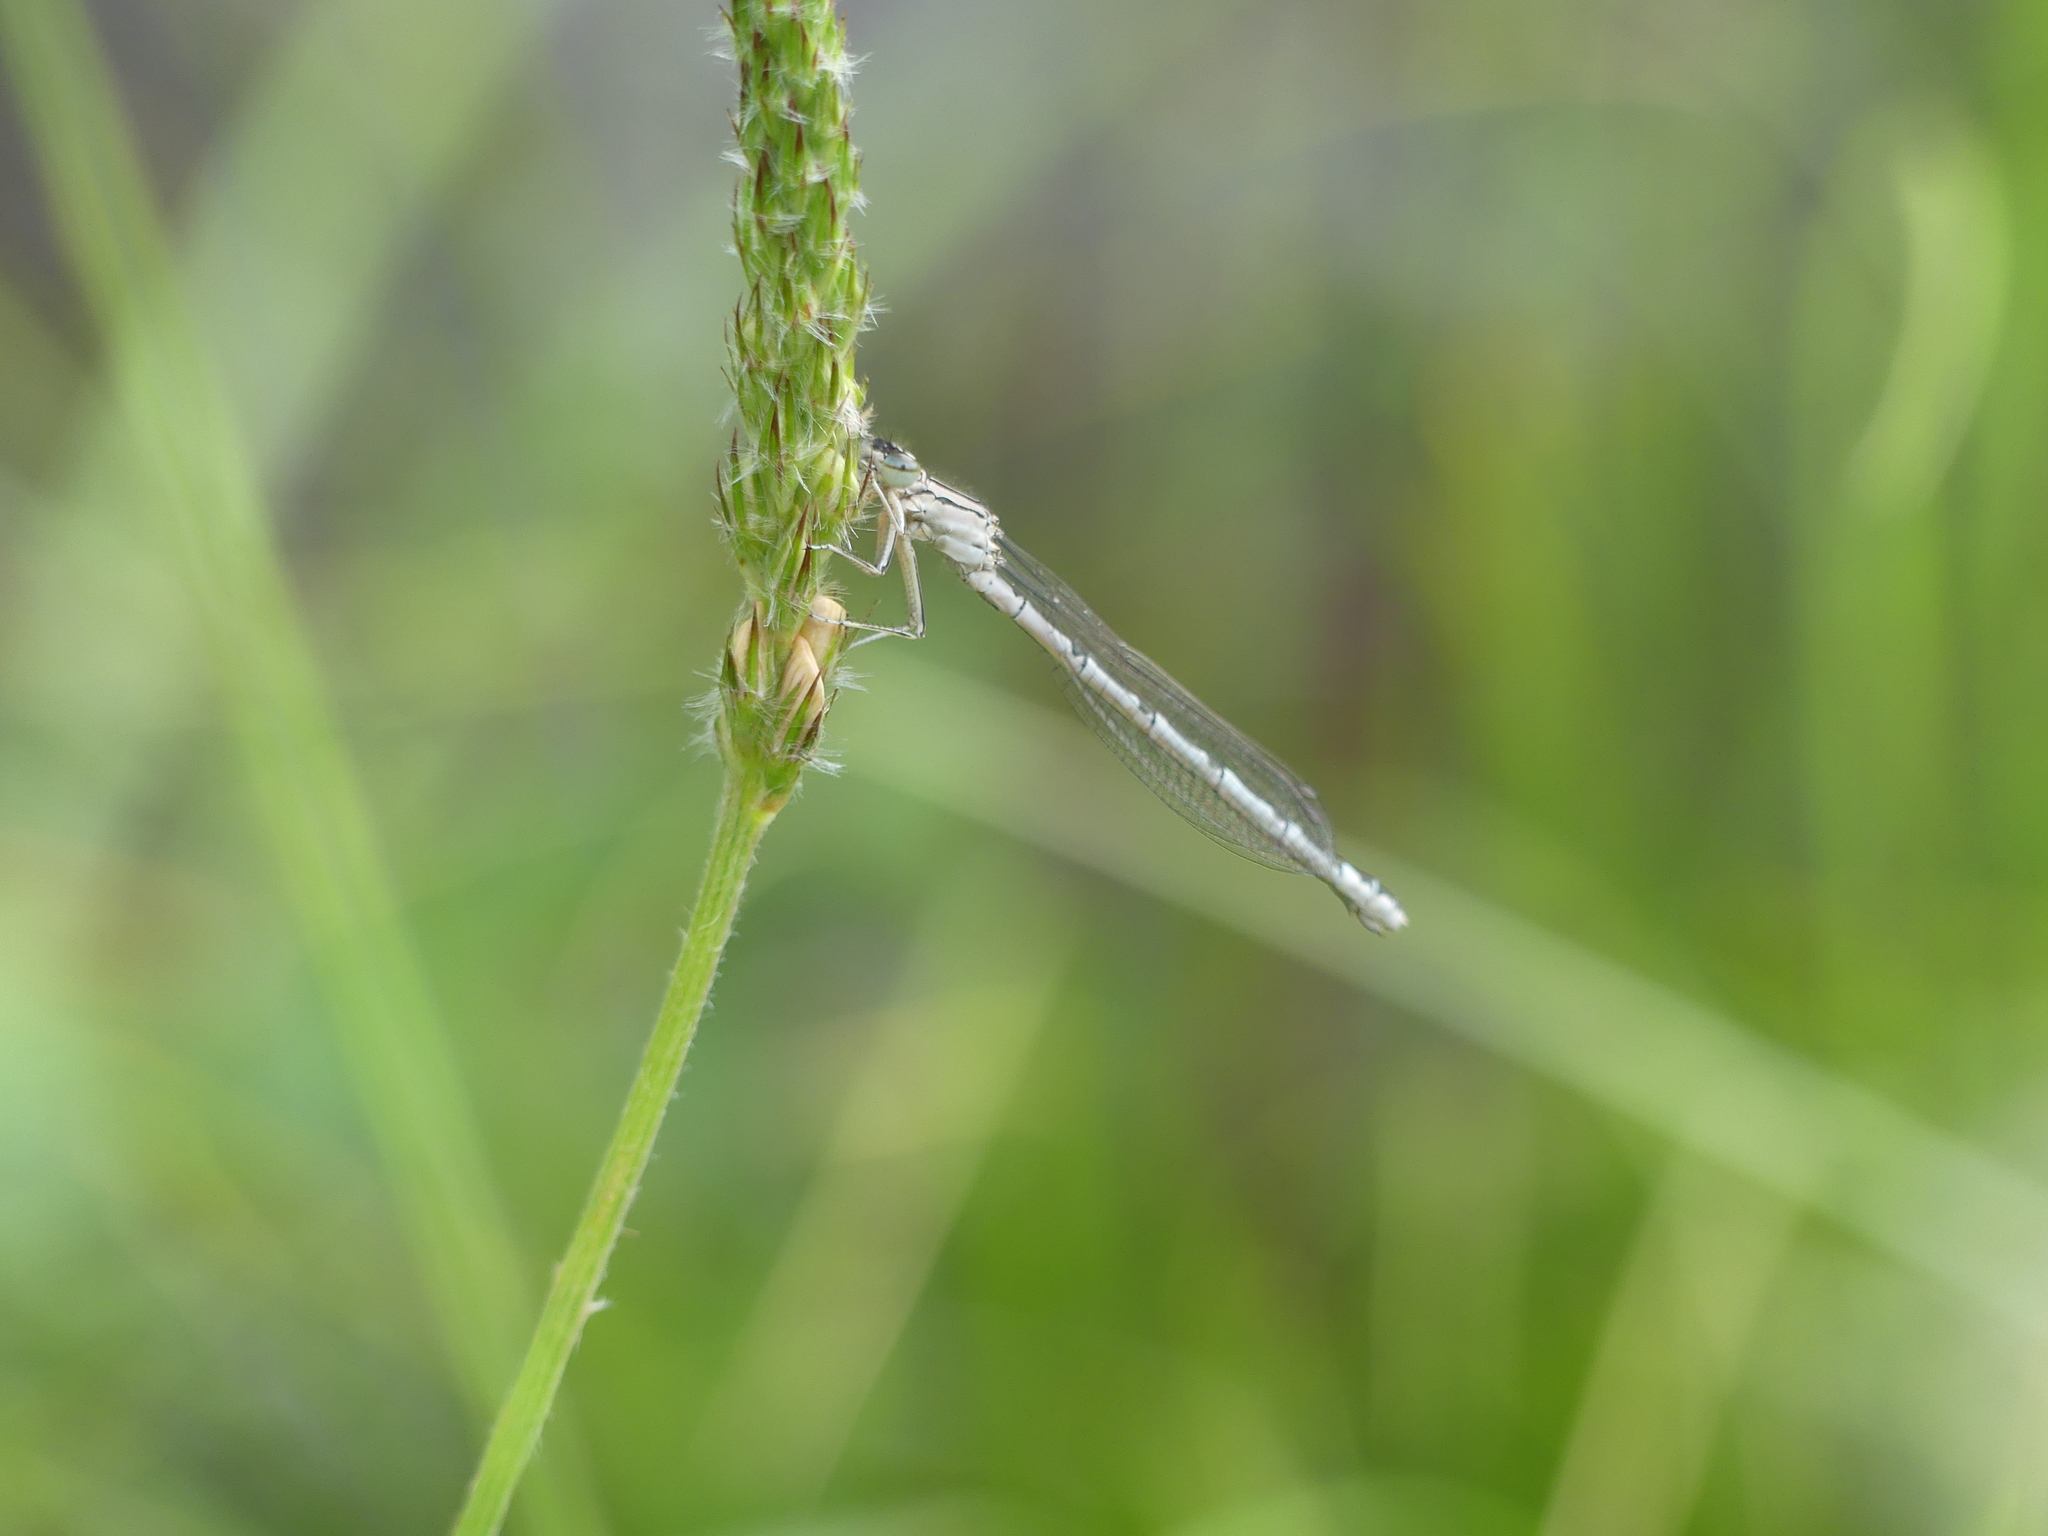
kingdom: Animalia
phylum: Arthropoda
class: Insecta
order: Odonata
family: Coenagrionidae
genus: Enallagma
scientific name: Enallagma cyathigerum
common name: Common blue damselfly
